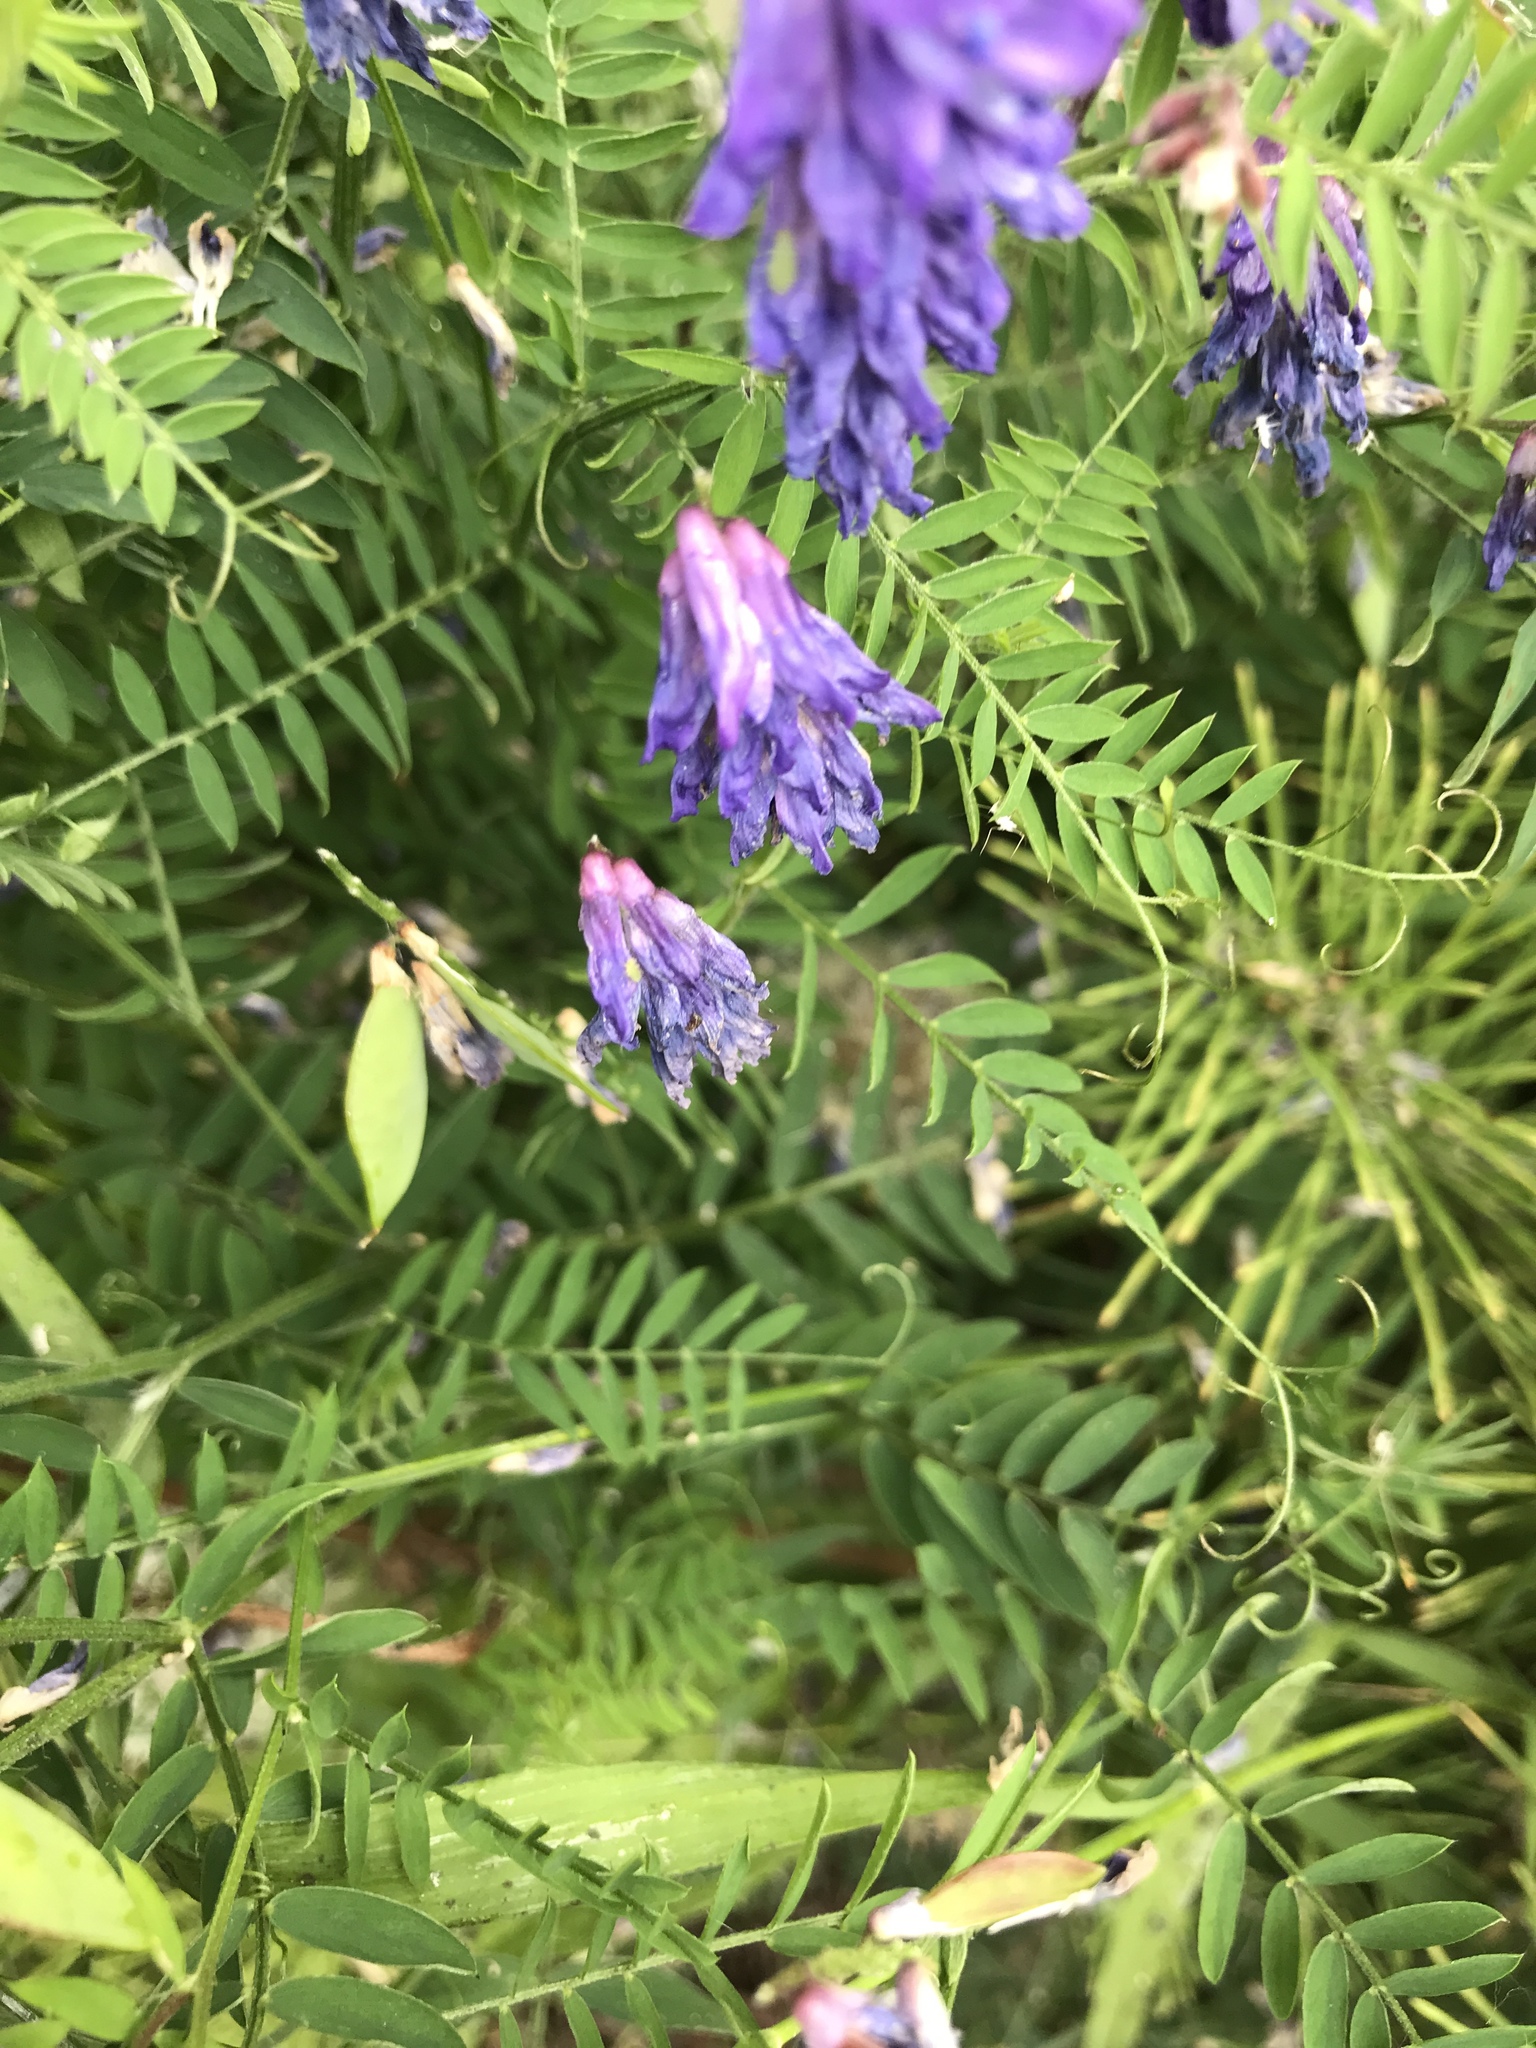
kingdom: Plantae
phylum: Tracheophyta
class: Magnoliopsida
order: Fabales
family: Fabaceae
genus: Vicia
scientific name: Vicia cracca
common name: Bird vetch
